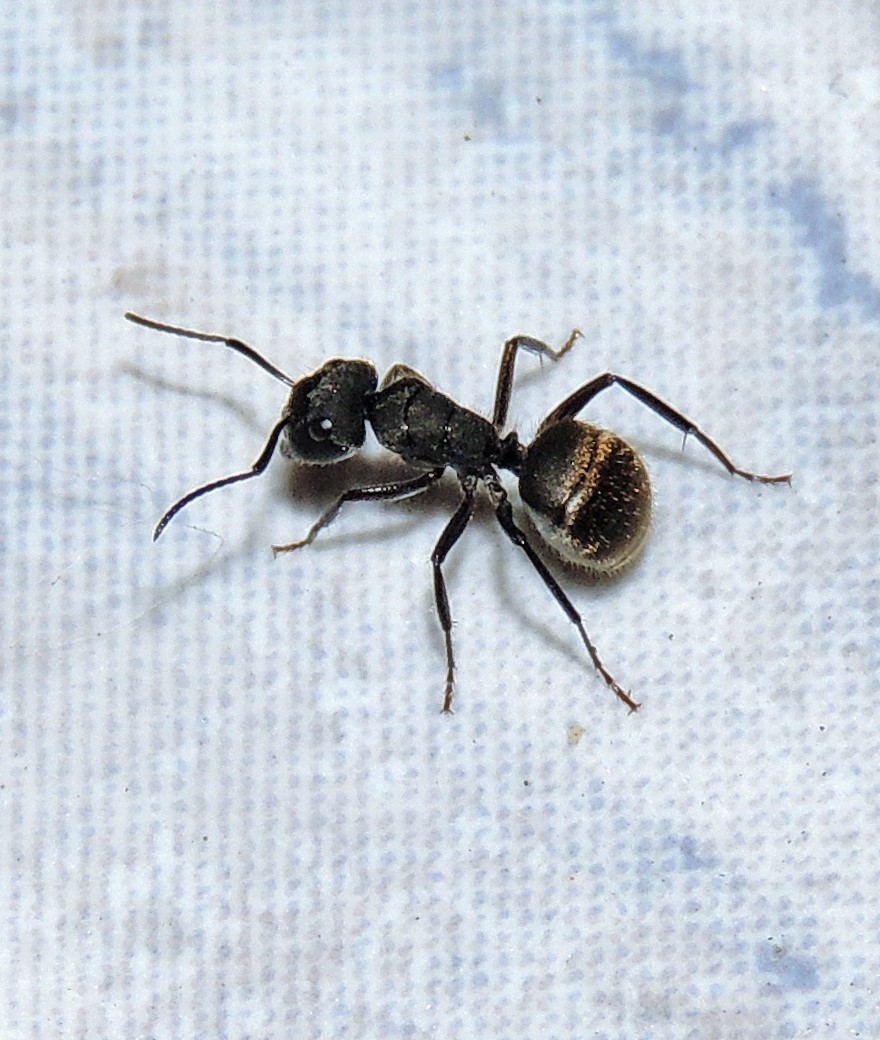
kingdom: Animalia
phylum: Arthropoda
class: Insecta
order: Hymenoptera
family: Formicidae
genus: Camponotus
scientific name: Camponotus mus
